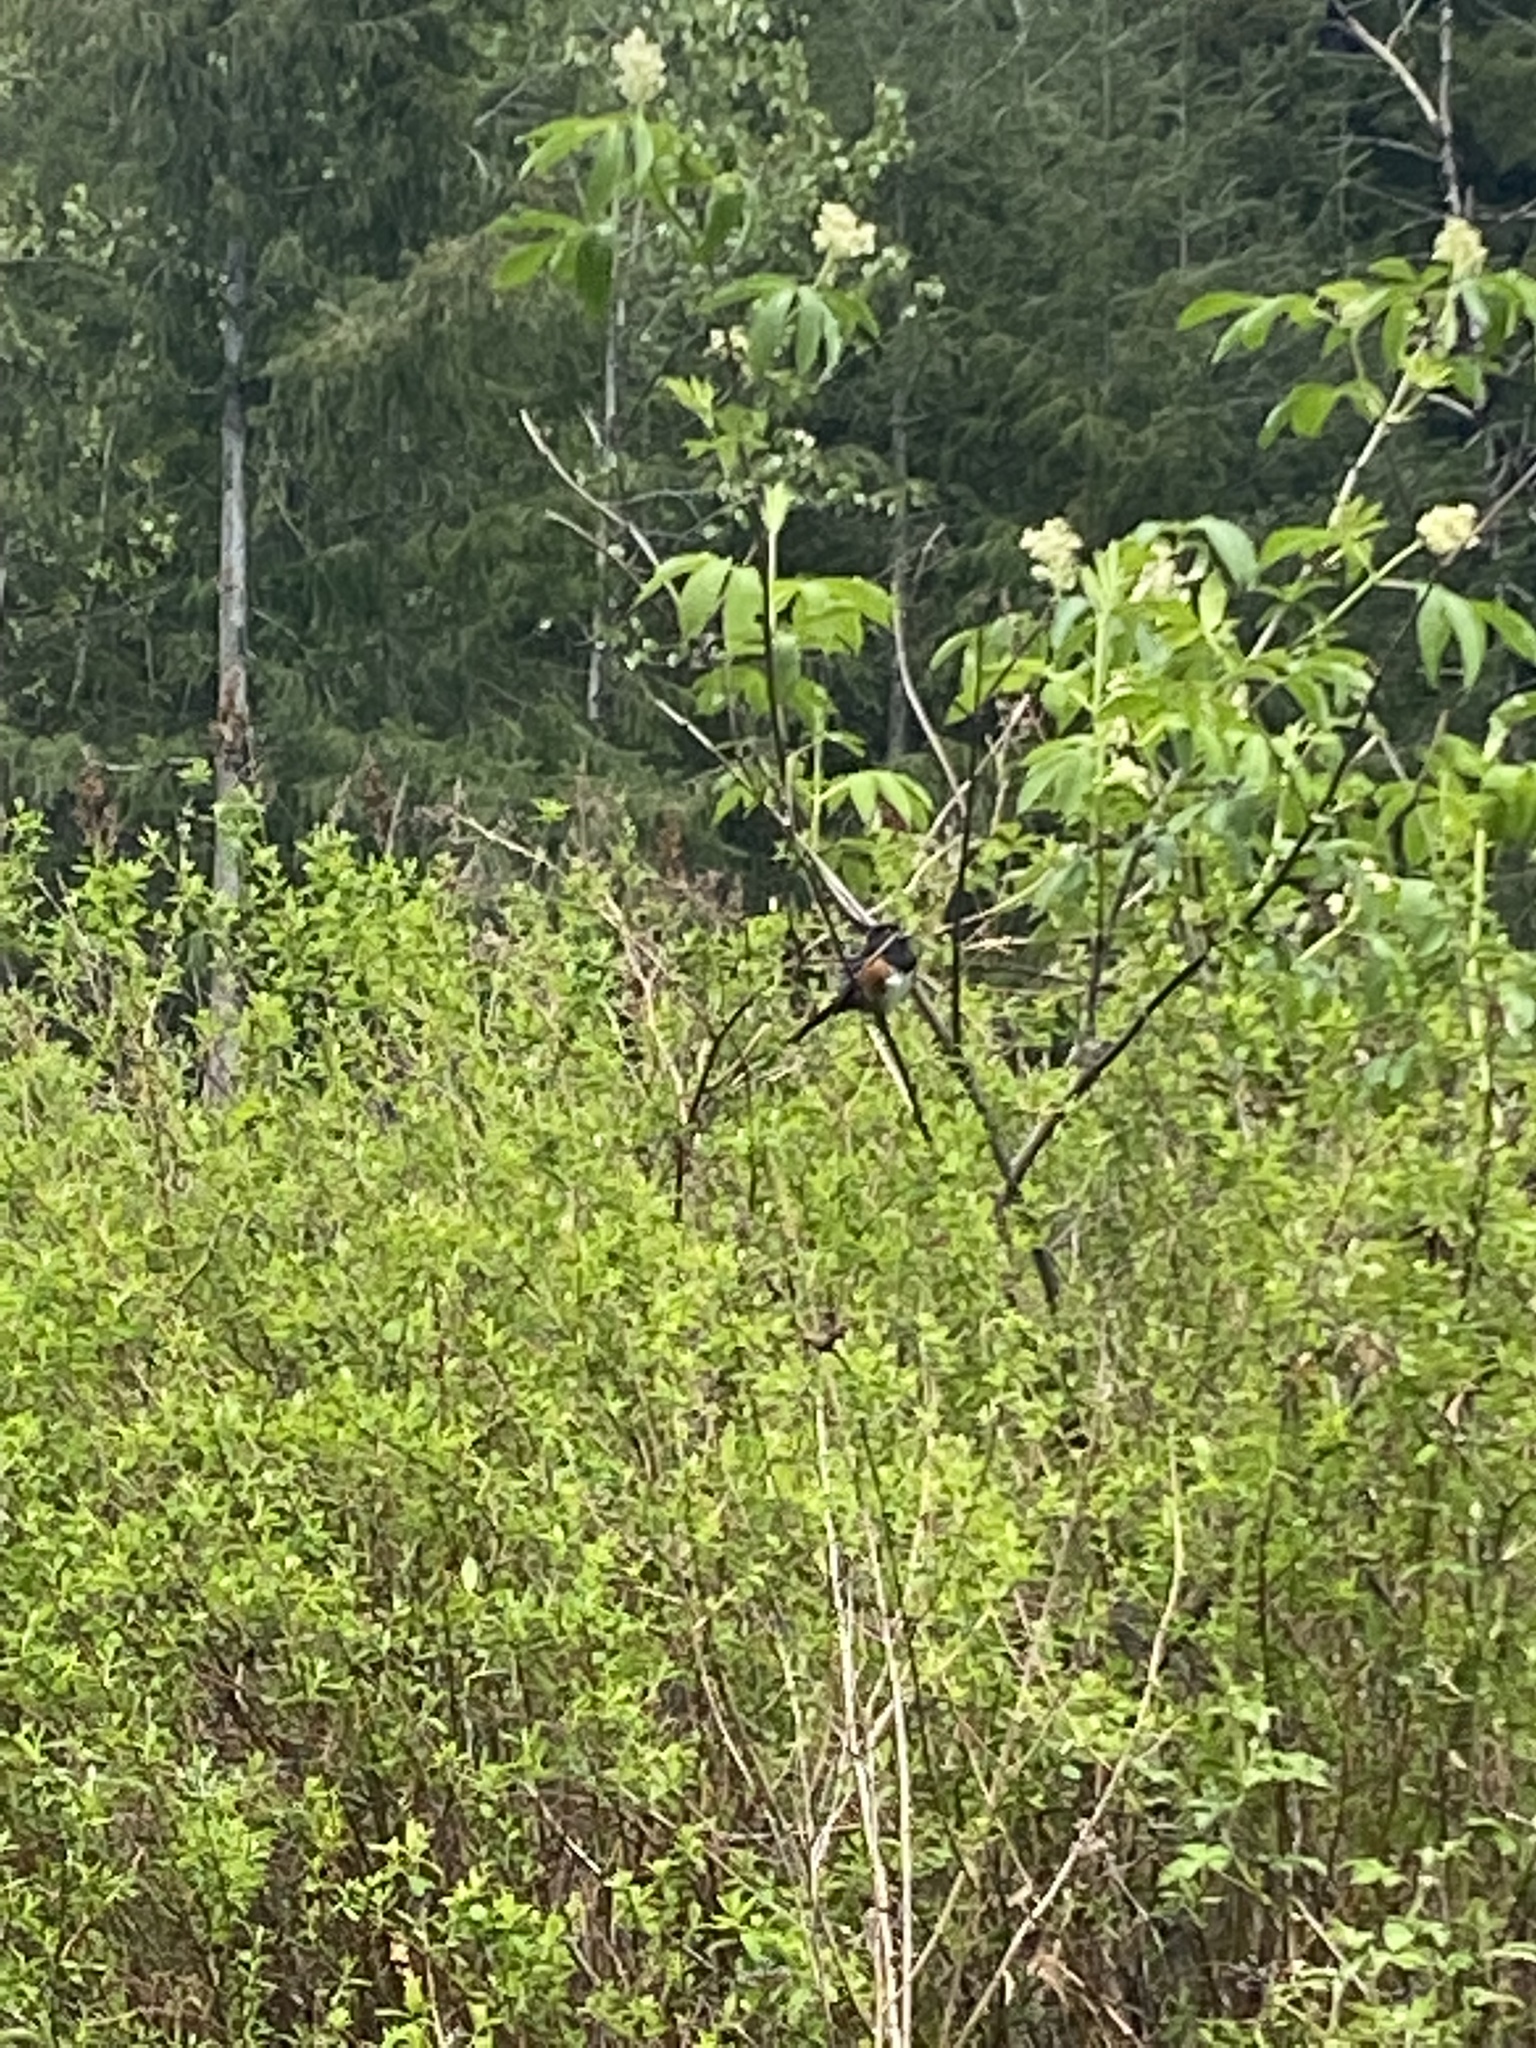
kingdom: Animalia
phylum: Chordata
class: Aves
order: Passeriformes
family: Passerellidae
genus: Pipilo
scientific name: Pipilo maculatus
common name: Spotted towhee
